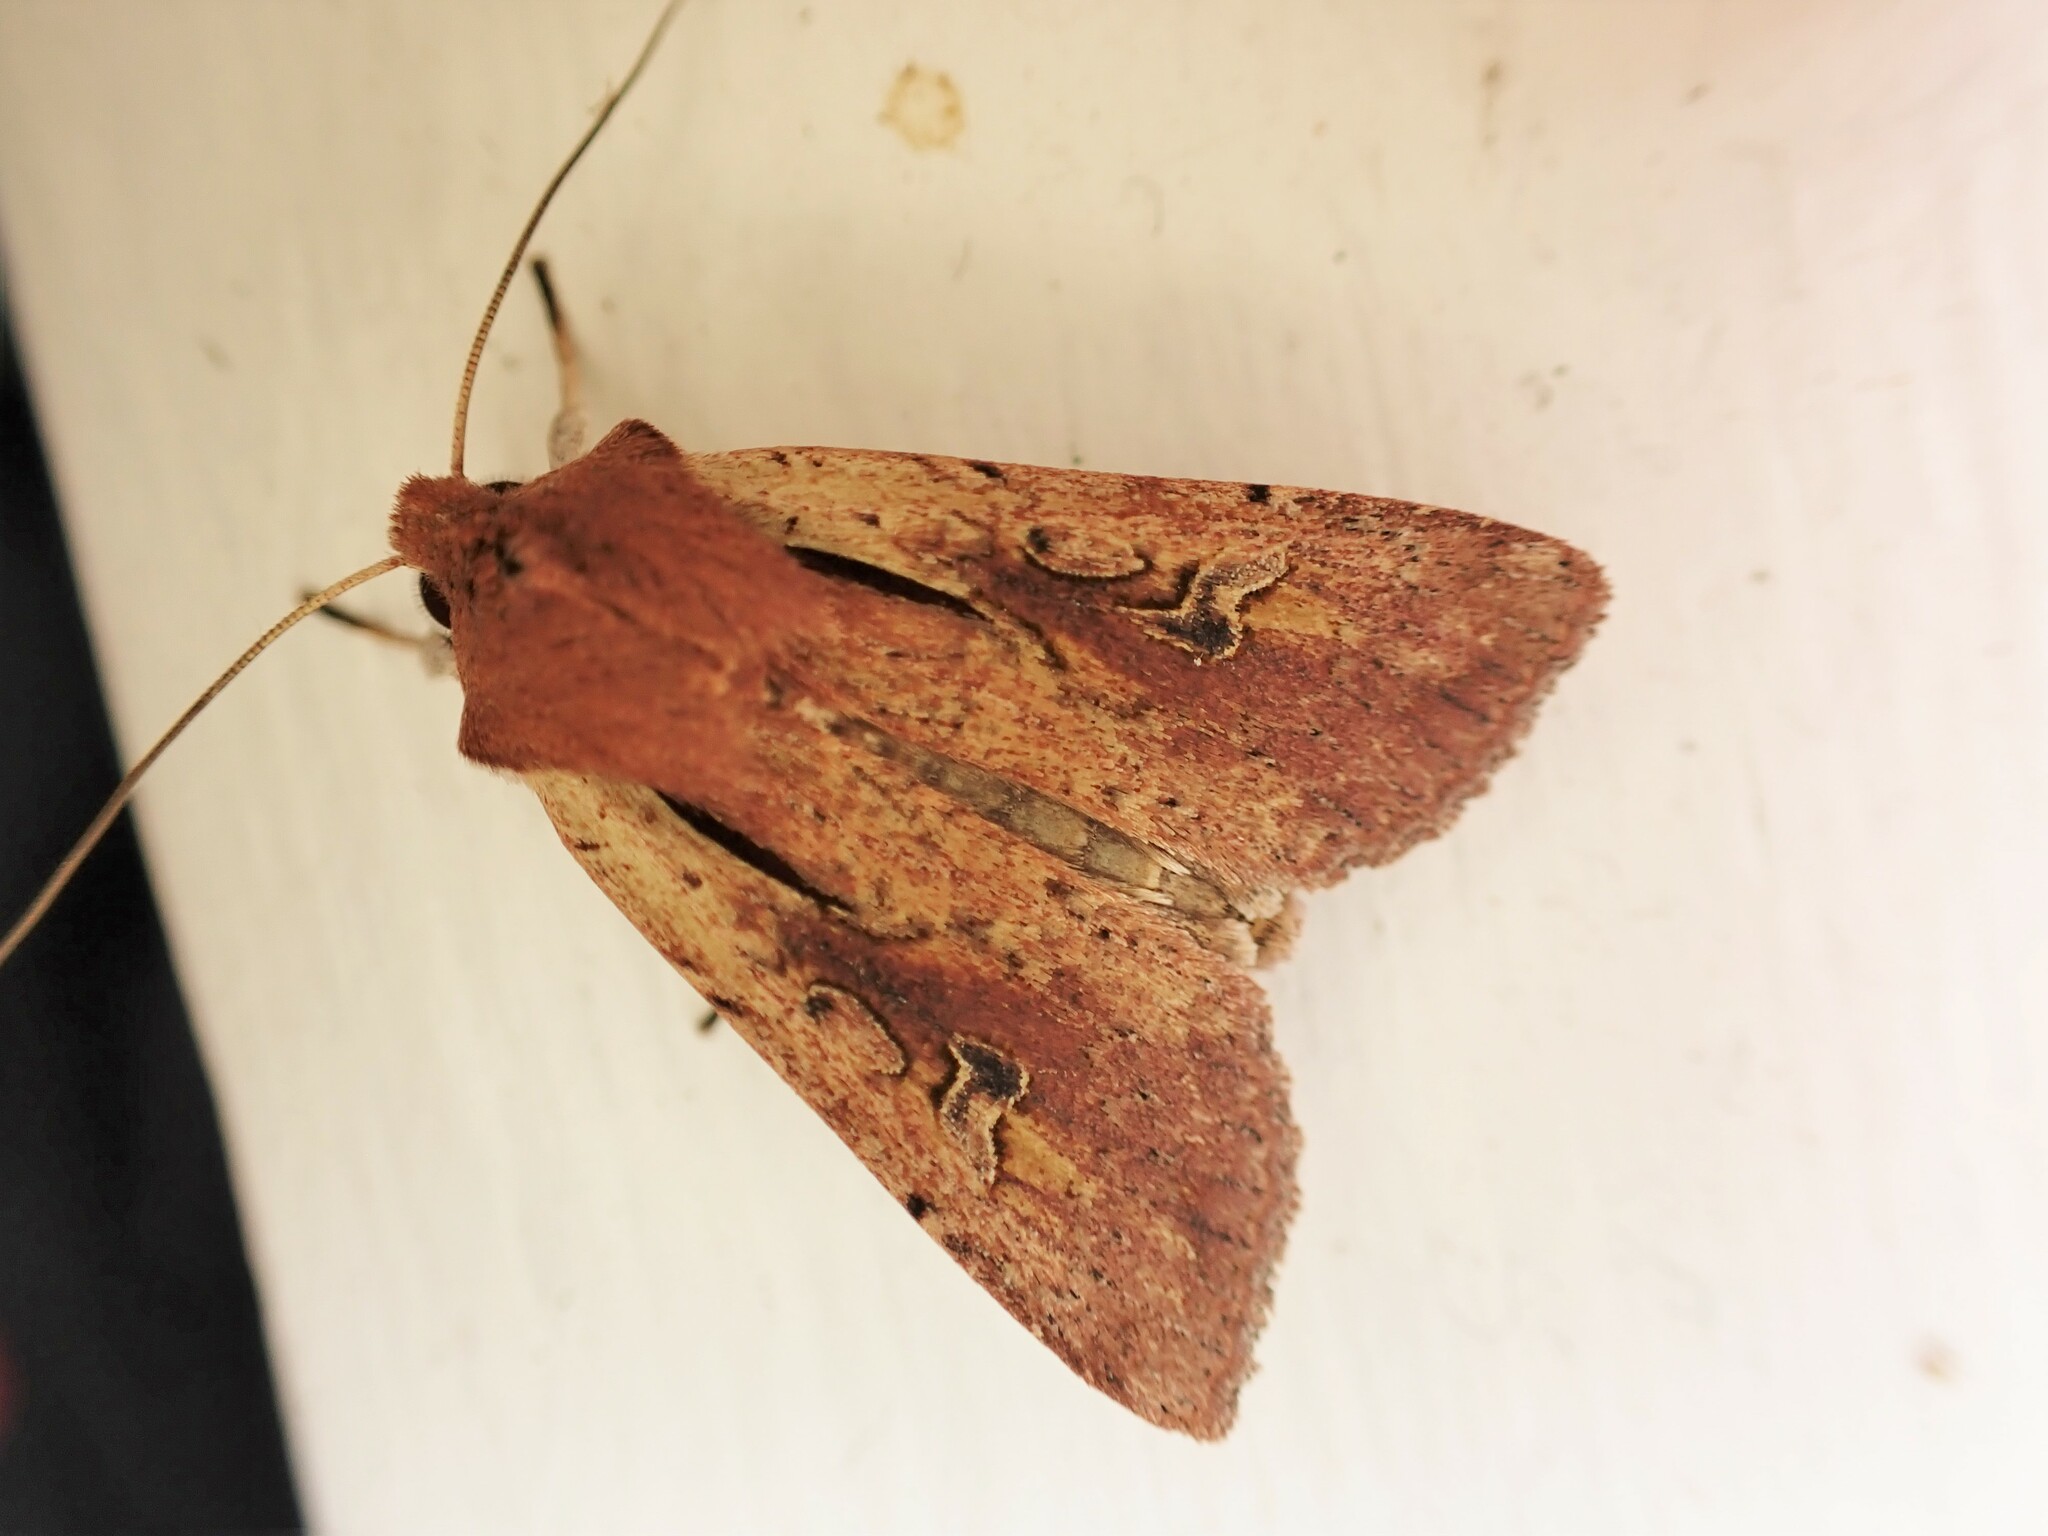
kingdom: Animalia
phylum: Arthropoda
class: Insecta
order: Lepidoptera
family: Noctuidae
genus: Ichneutica
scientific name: Ichneutica atristriga
